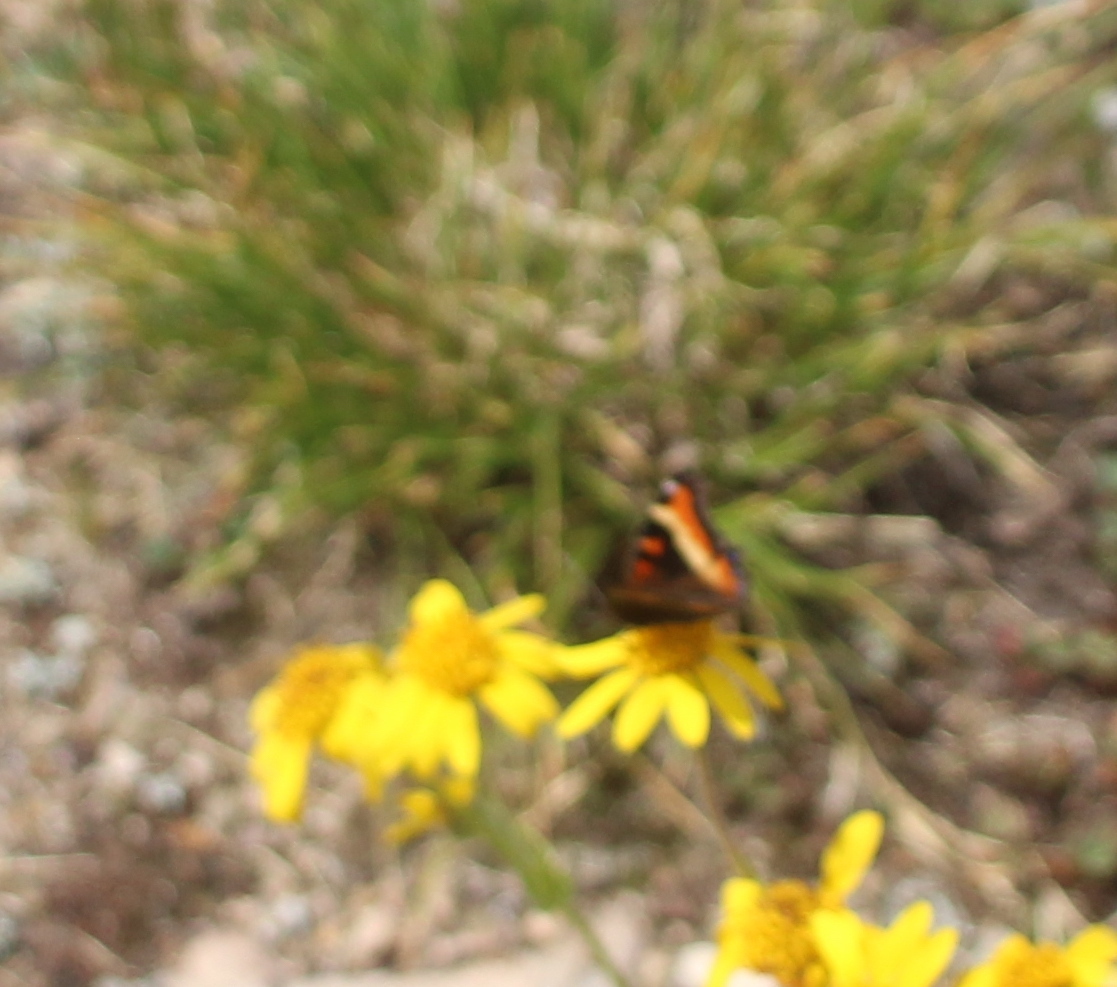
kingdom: Animalia
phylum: Arthropoda
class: Insecta
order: Lepidoptera
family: Nymphalidae
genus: Aglais
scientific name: Aglais milberti
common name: Milbert's tortoiseshell
